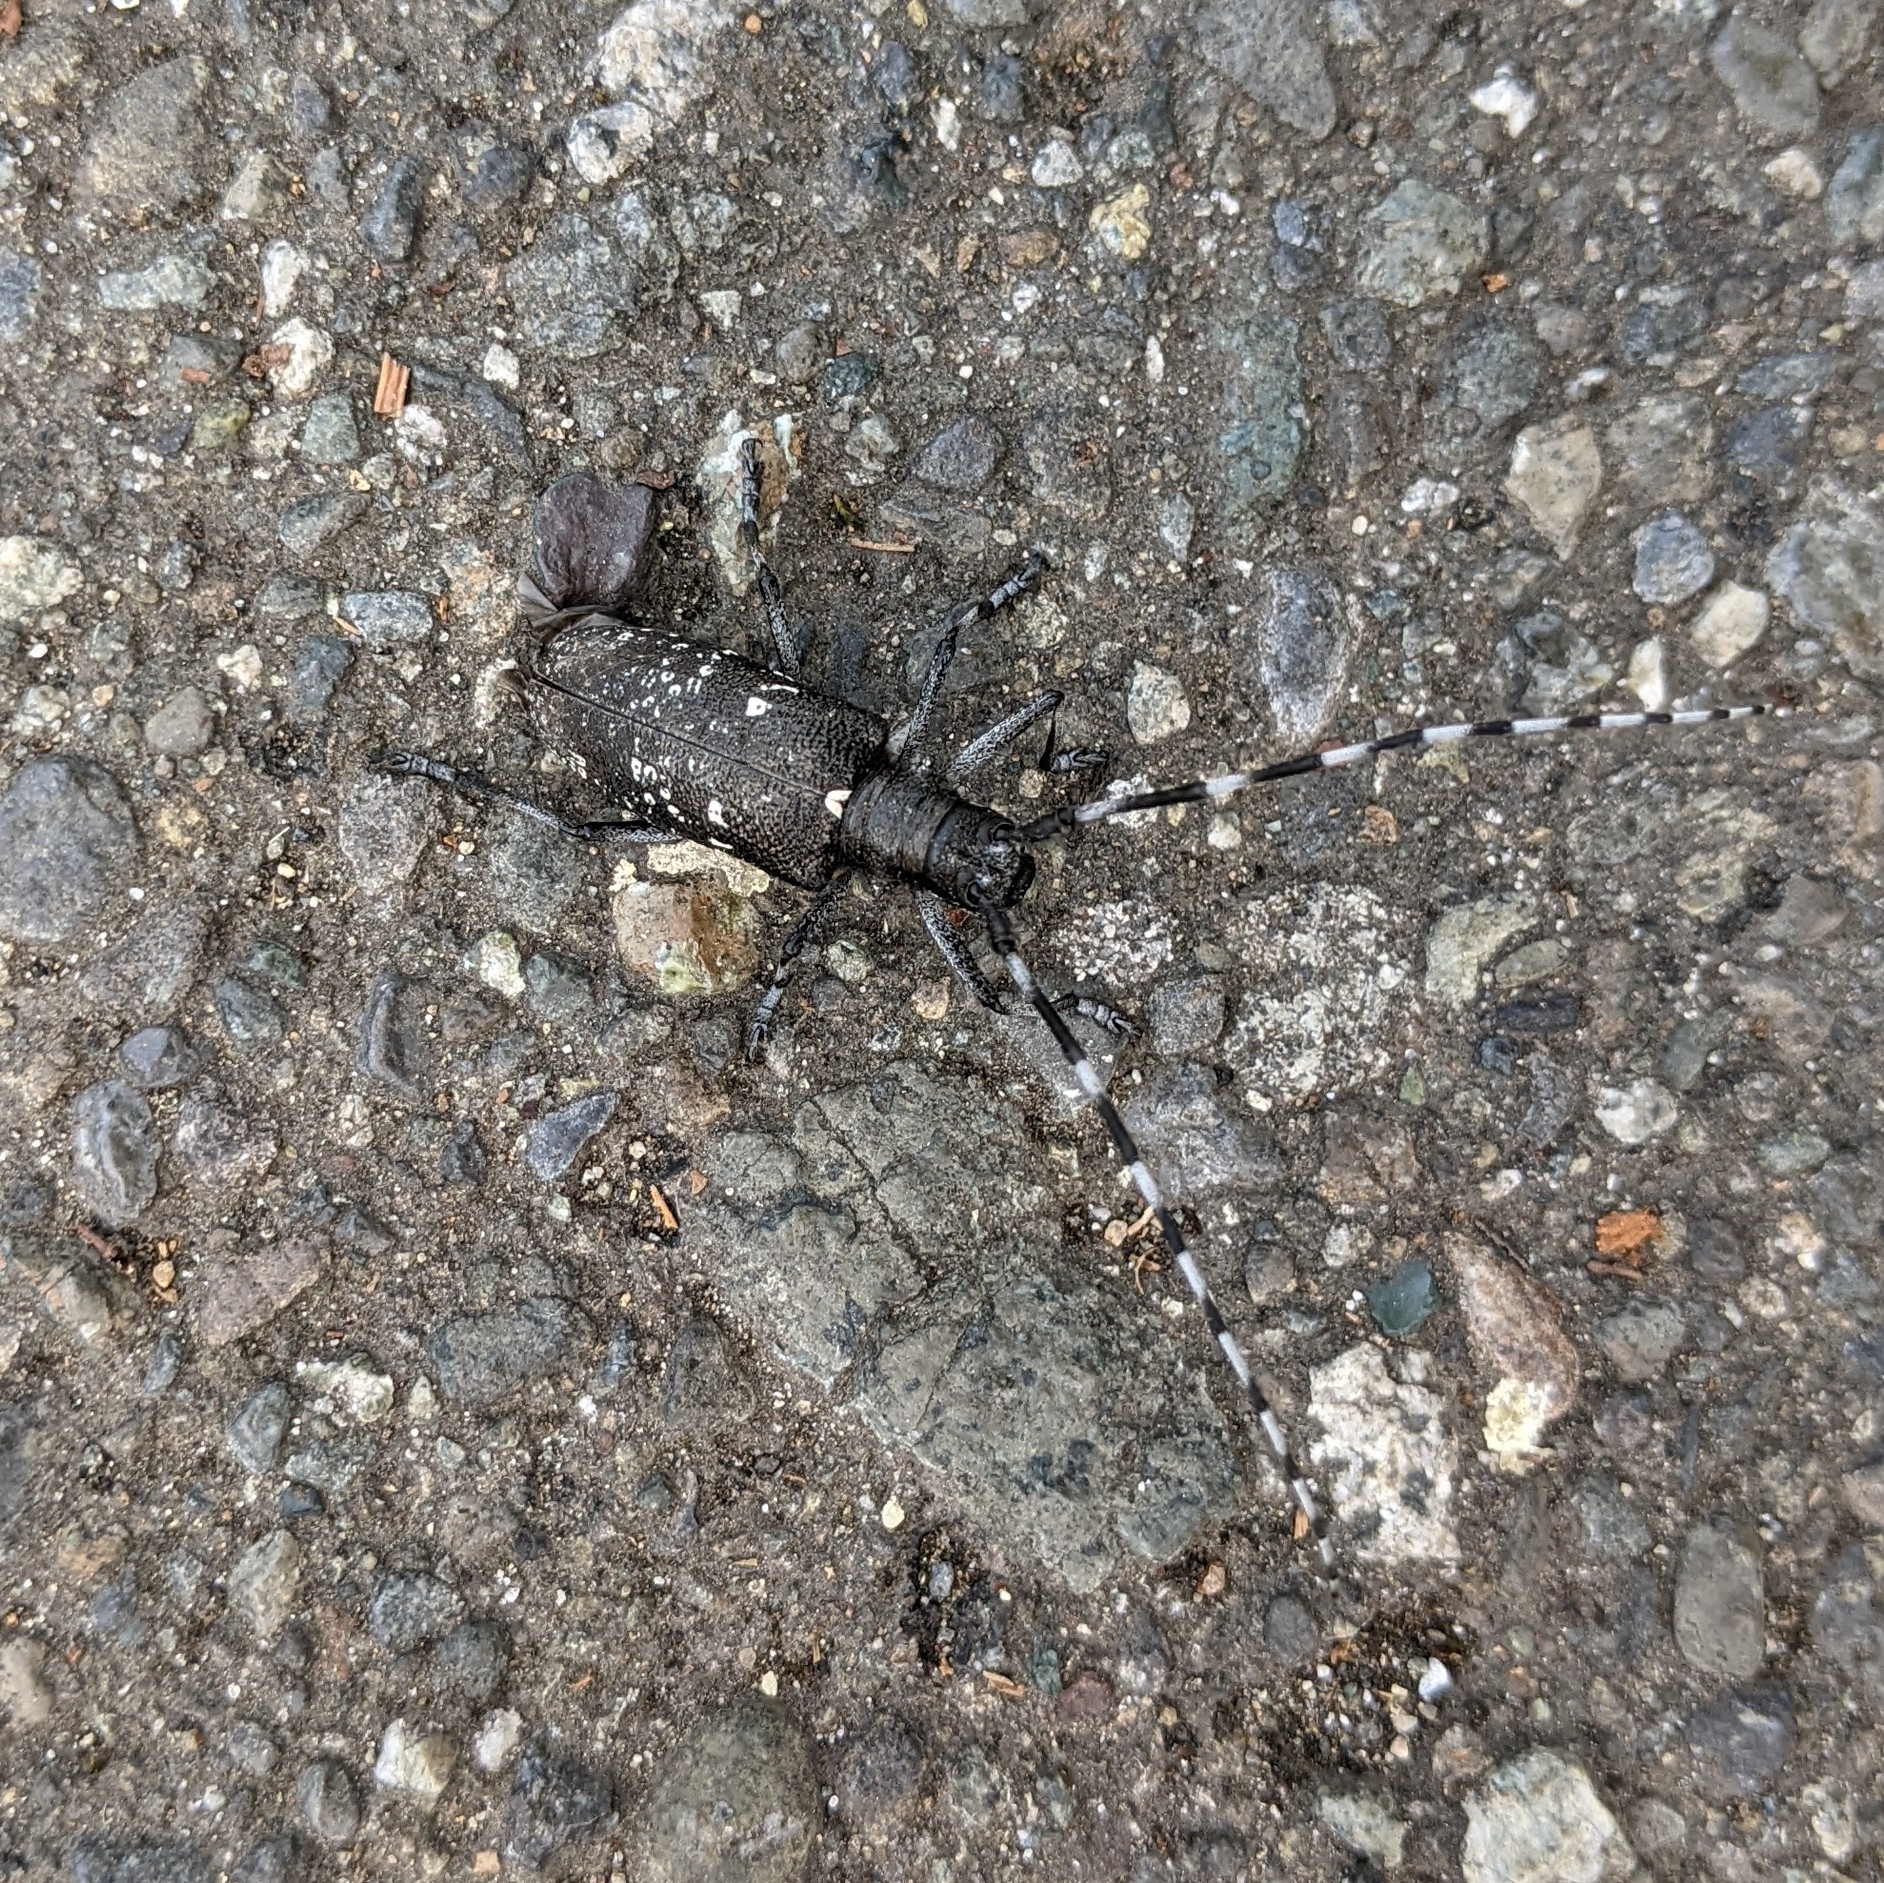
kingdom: Animalia
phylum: Arthropoda
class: Insecta
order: Coleoptera
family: Cerambycidae
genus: Monochamus
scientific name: Monochamus scutellatus
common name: White-spotted sawyer beetle
